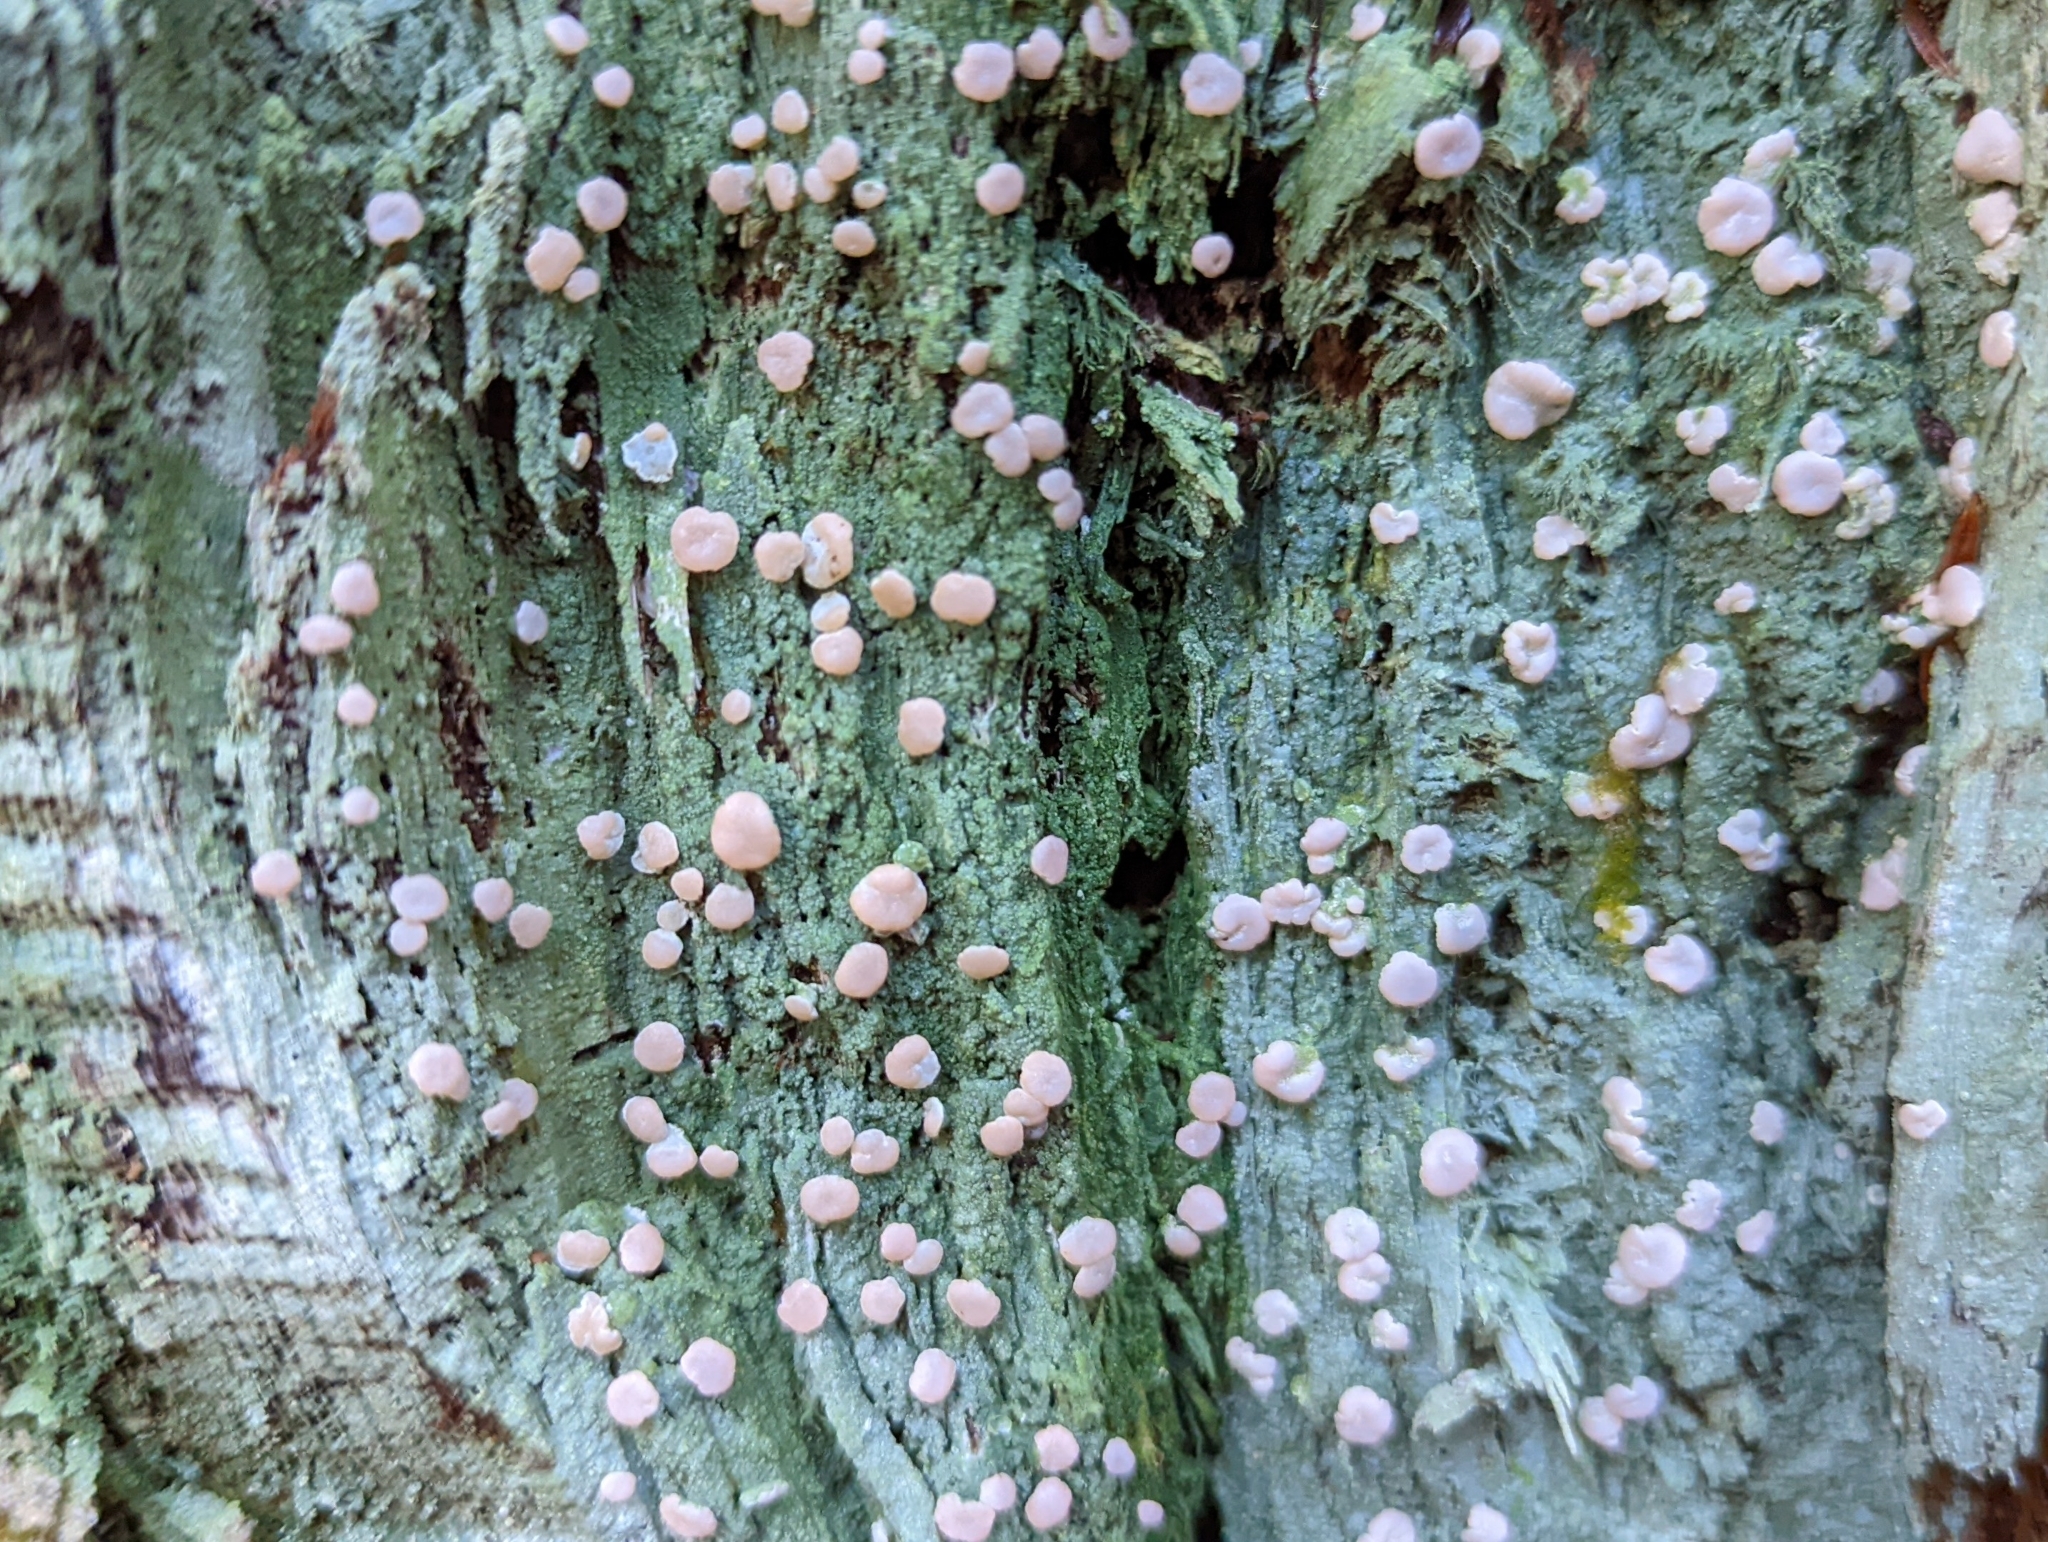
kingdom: Fungi
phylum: Ascomycota
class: Lecanoromycetes
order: Pertusariales
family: Icmadophilaceae
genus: Icmadophila
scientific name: Icmadophila ericetorum
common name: Candy lichen
